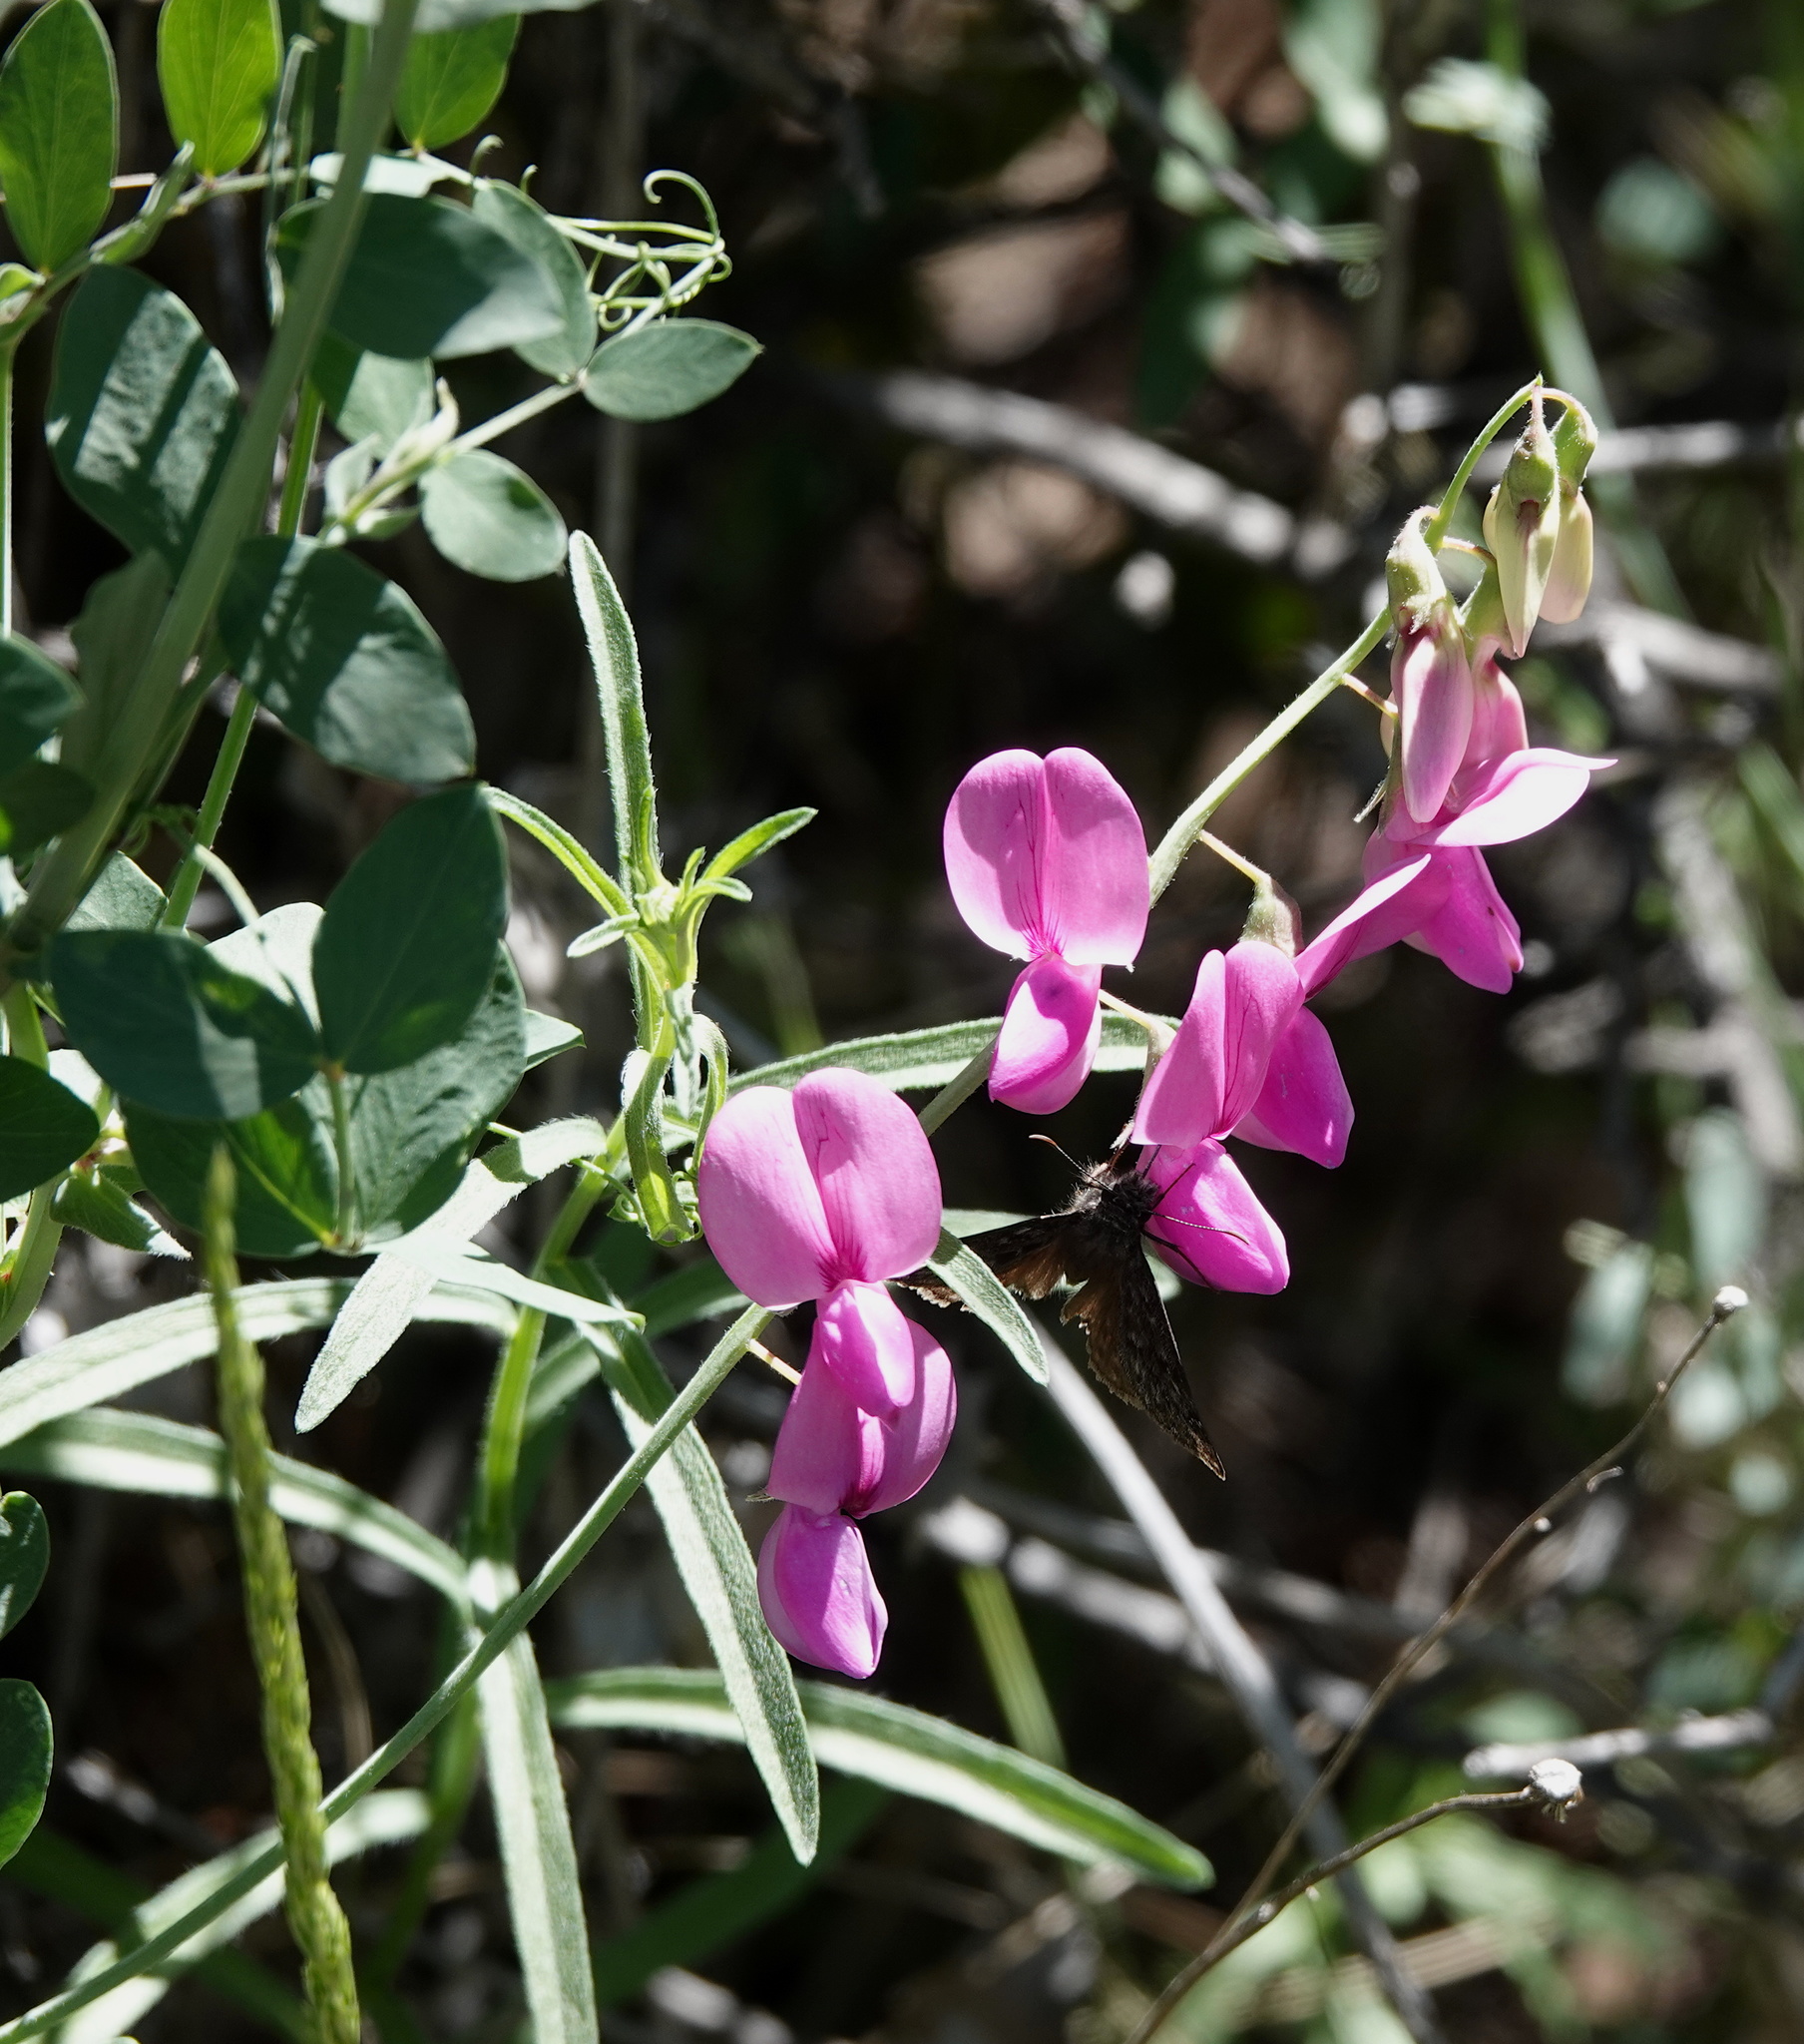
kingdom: Plantae
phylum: Tracheophyta
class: Magnoliopsida
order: Fabales
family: Fabaceae
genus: Lathyrus
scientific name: Lathyrus vestitus
